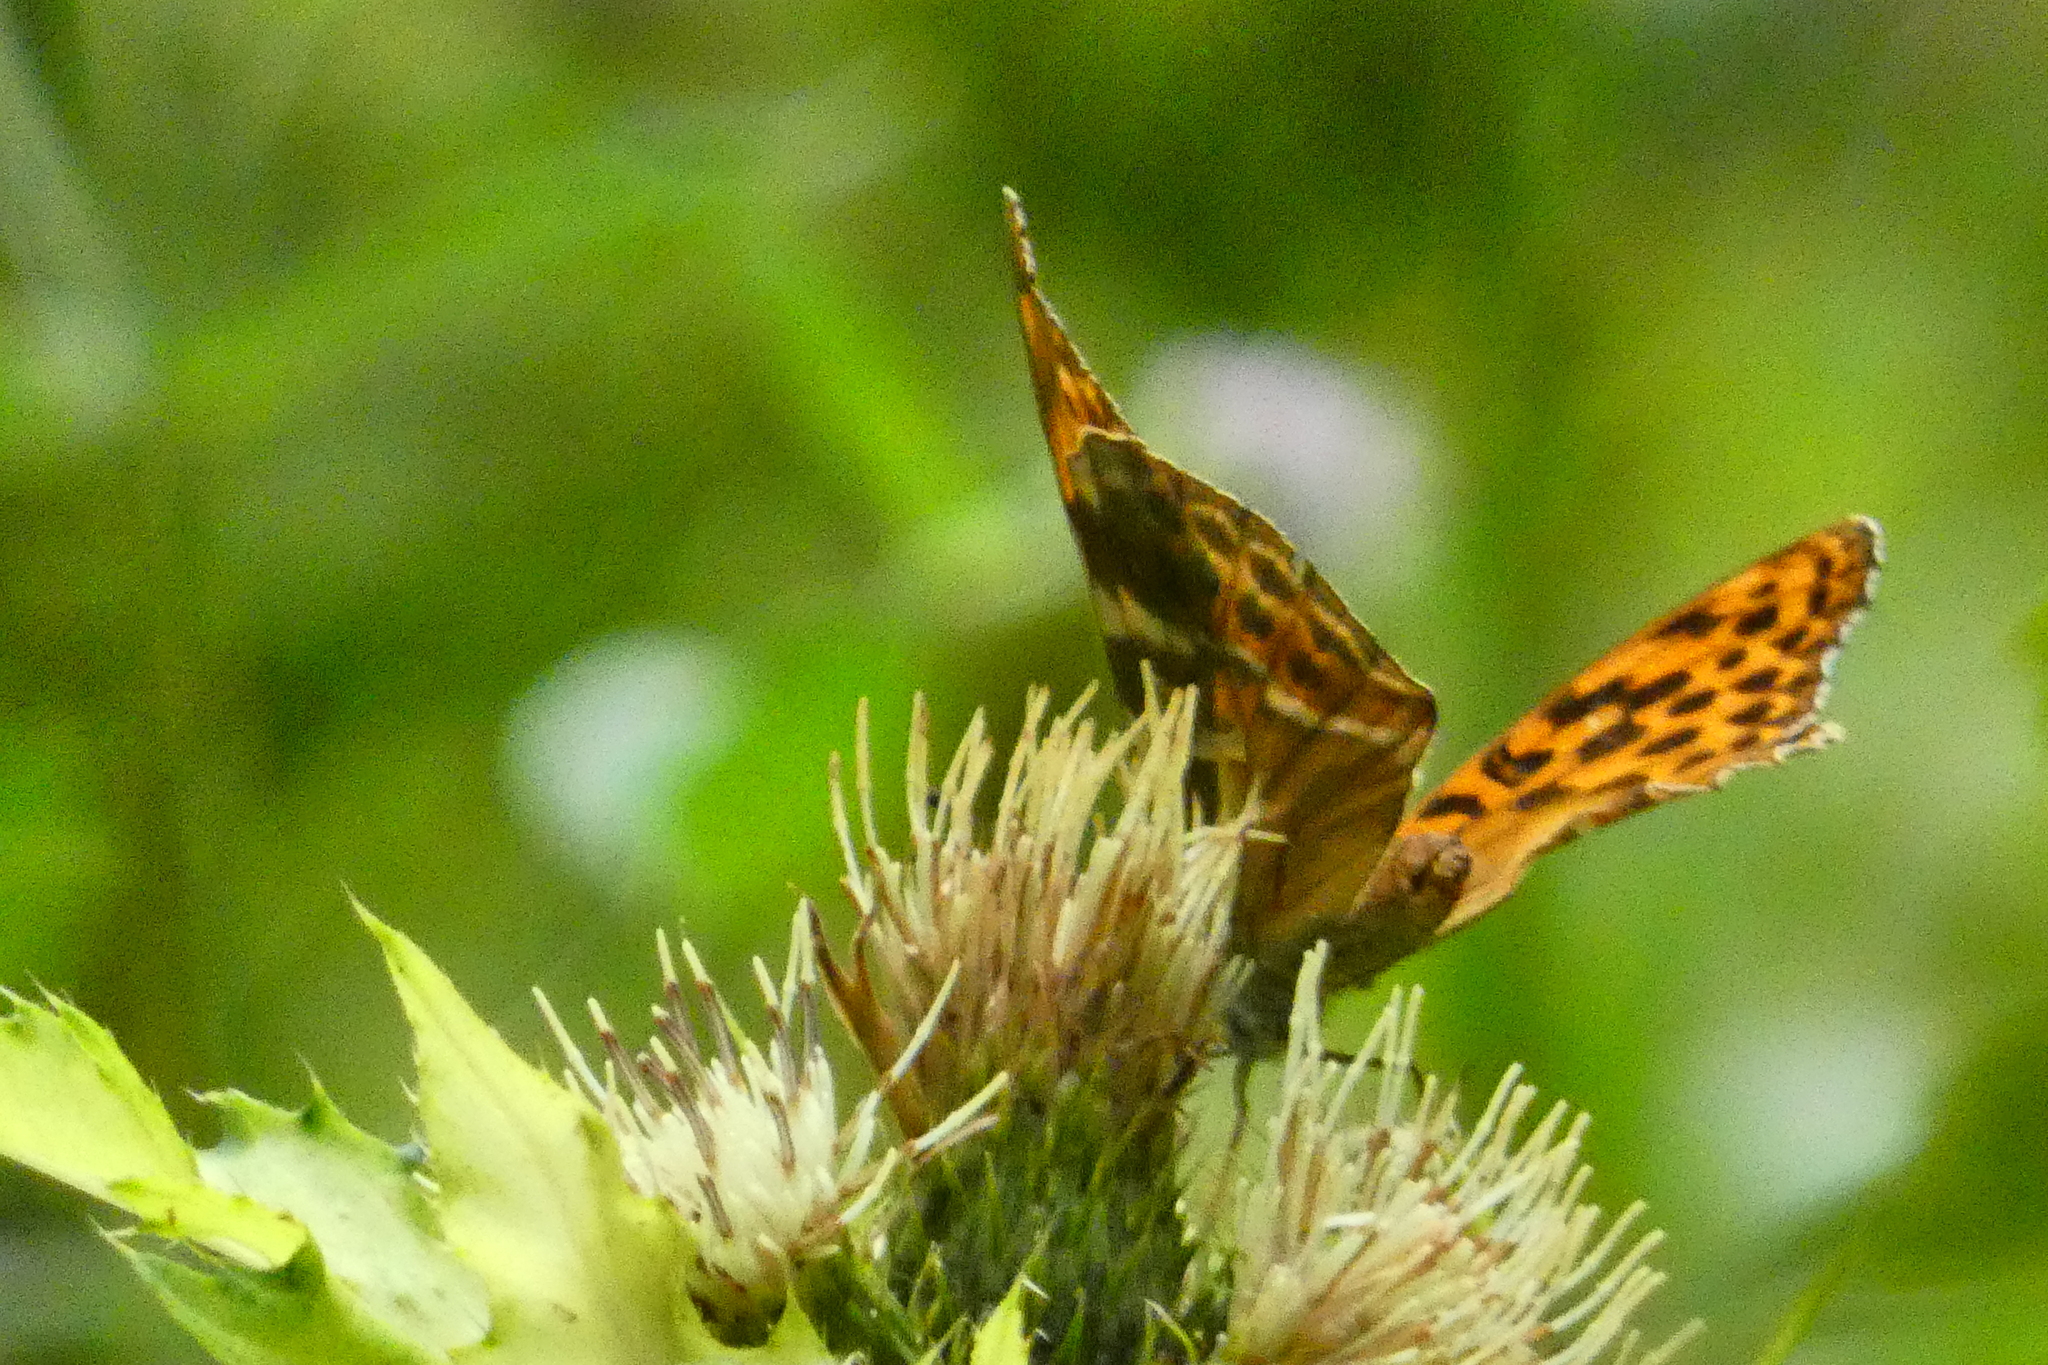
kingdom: Animalia
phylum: Arthropoda
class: Insecta
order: Lepidoptera
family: Nymphalidae
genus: Argynnis
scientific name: Argynnis paphia
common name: Silver-washed fritillary
